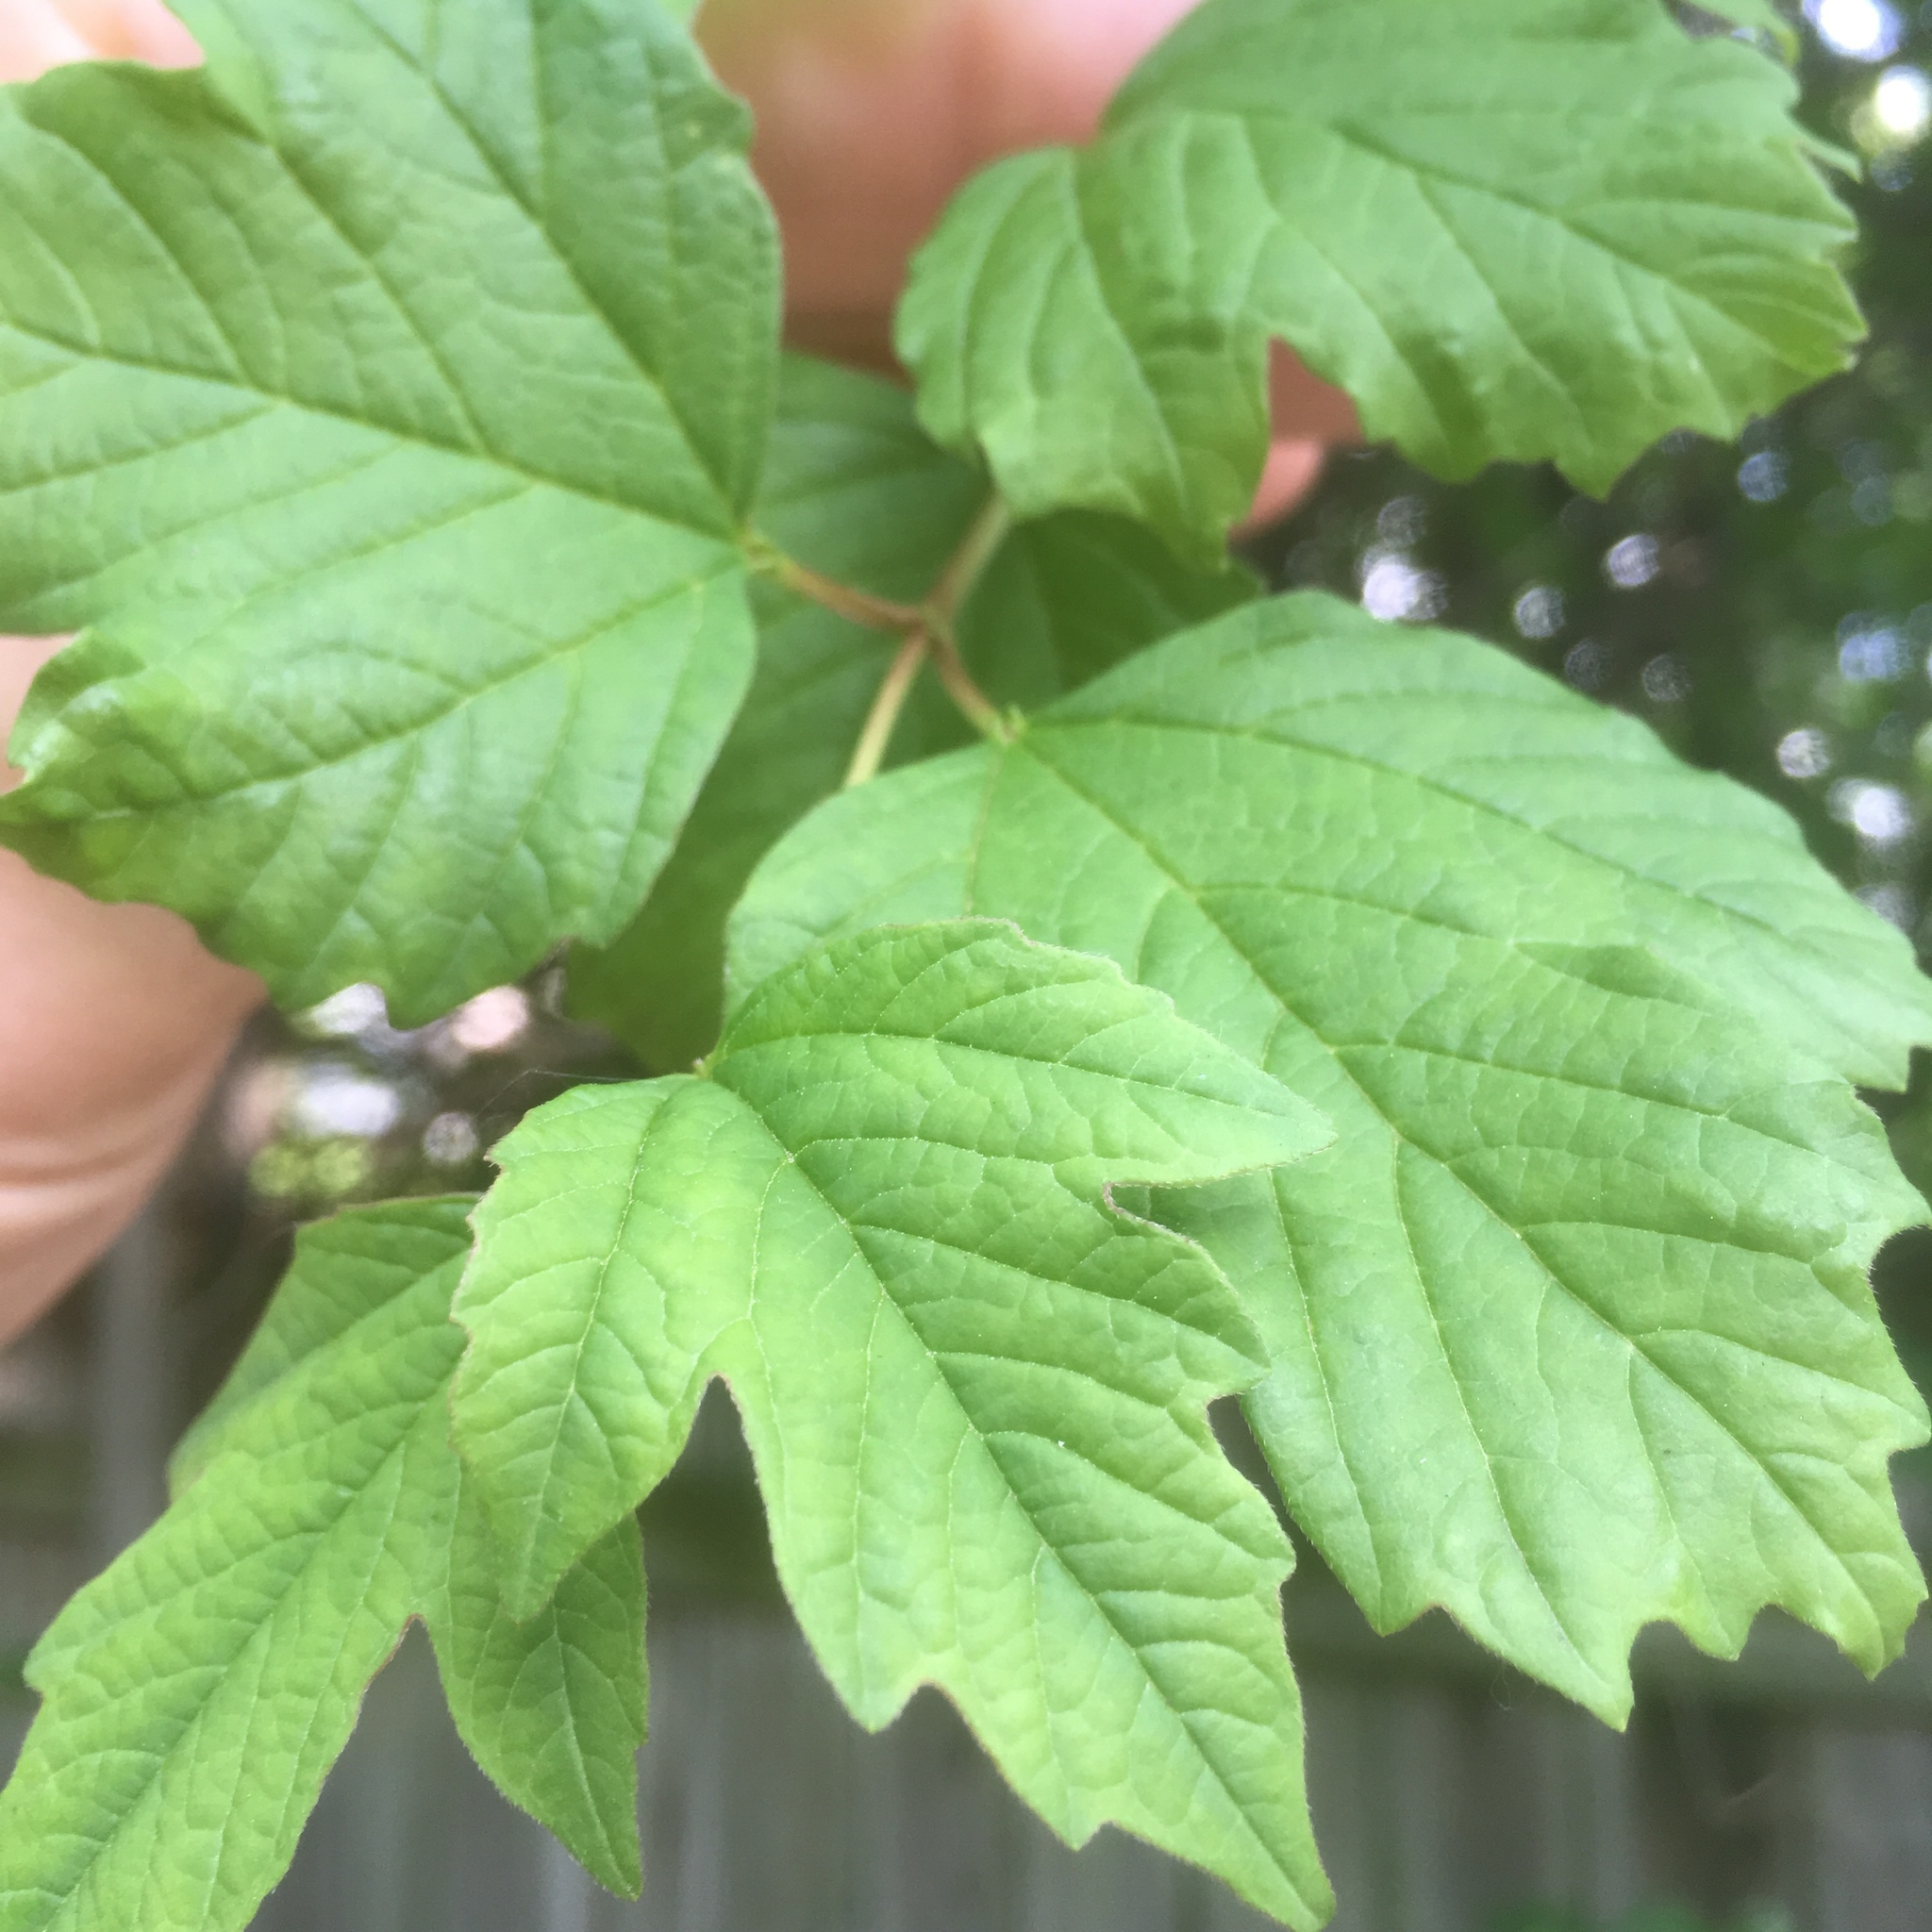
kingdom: Plantae
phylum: Tracheophyta
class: Magnoliopsida
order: Dipsacales
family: Viburnaceae
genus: Viburnum
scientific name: Viburnum opulus
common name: Guelder-rose
